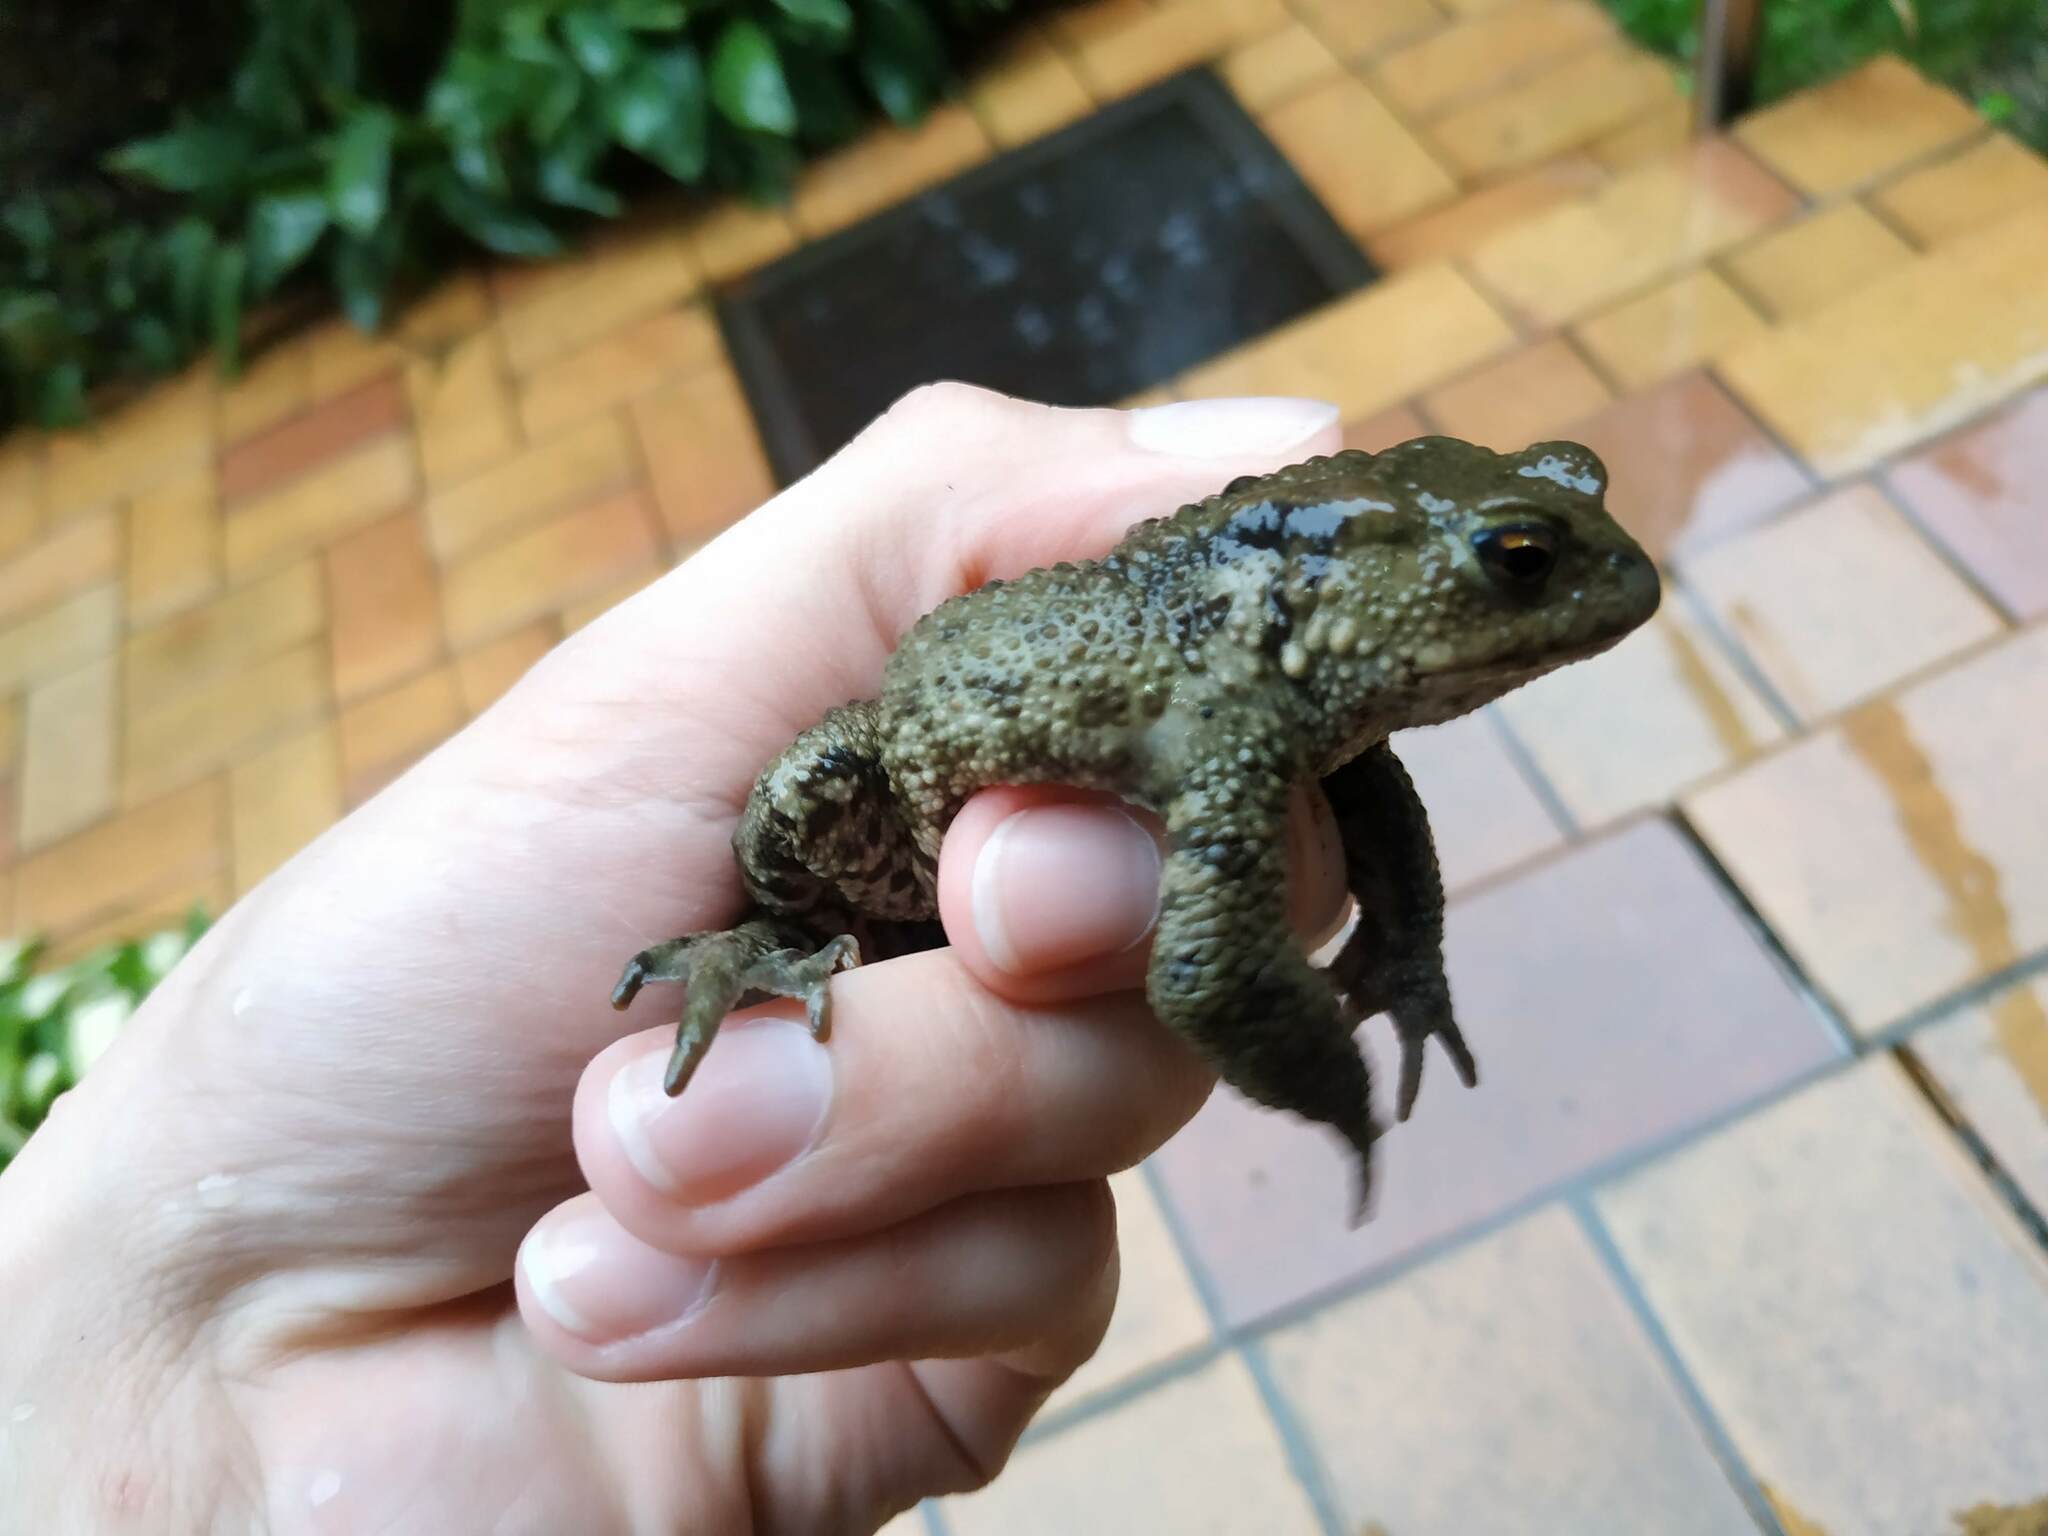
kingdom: Animalia
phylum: Chordata
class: Amphibia
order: Anura
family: Bufonidae
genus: Bufo
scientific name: Bufo bufo
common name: Common toad
